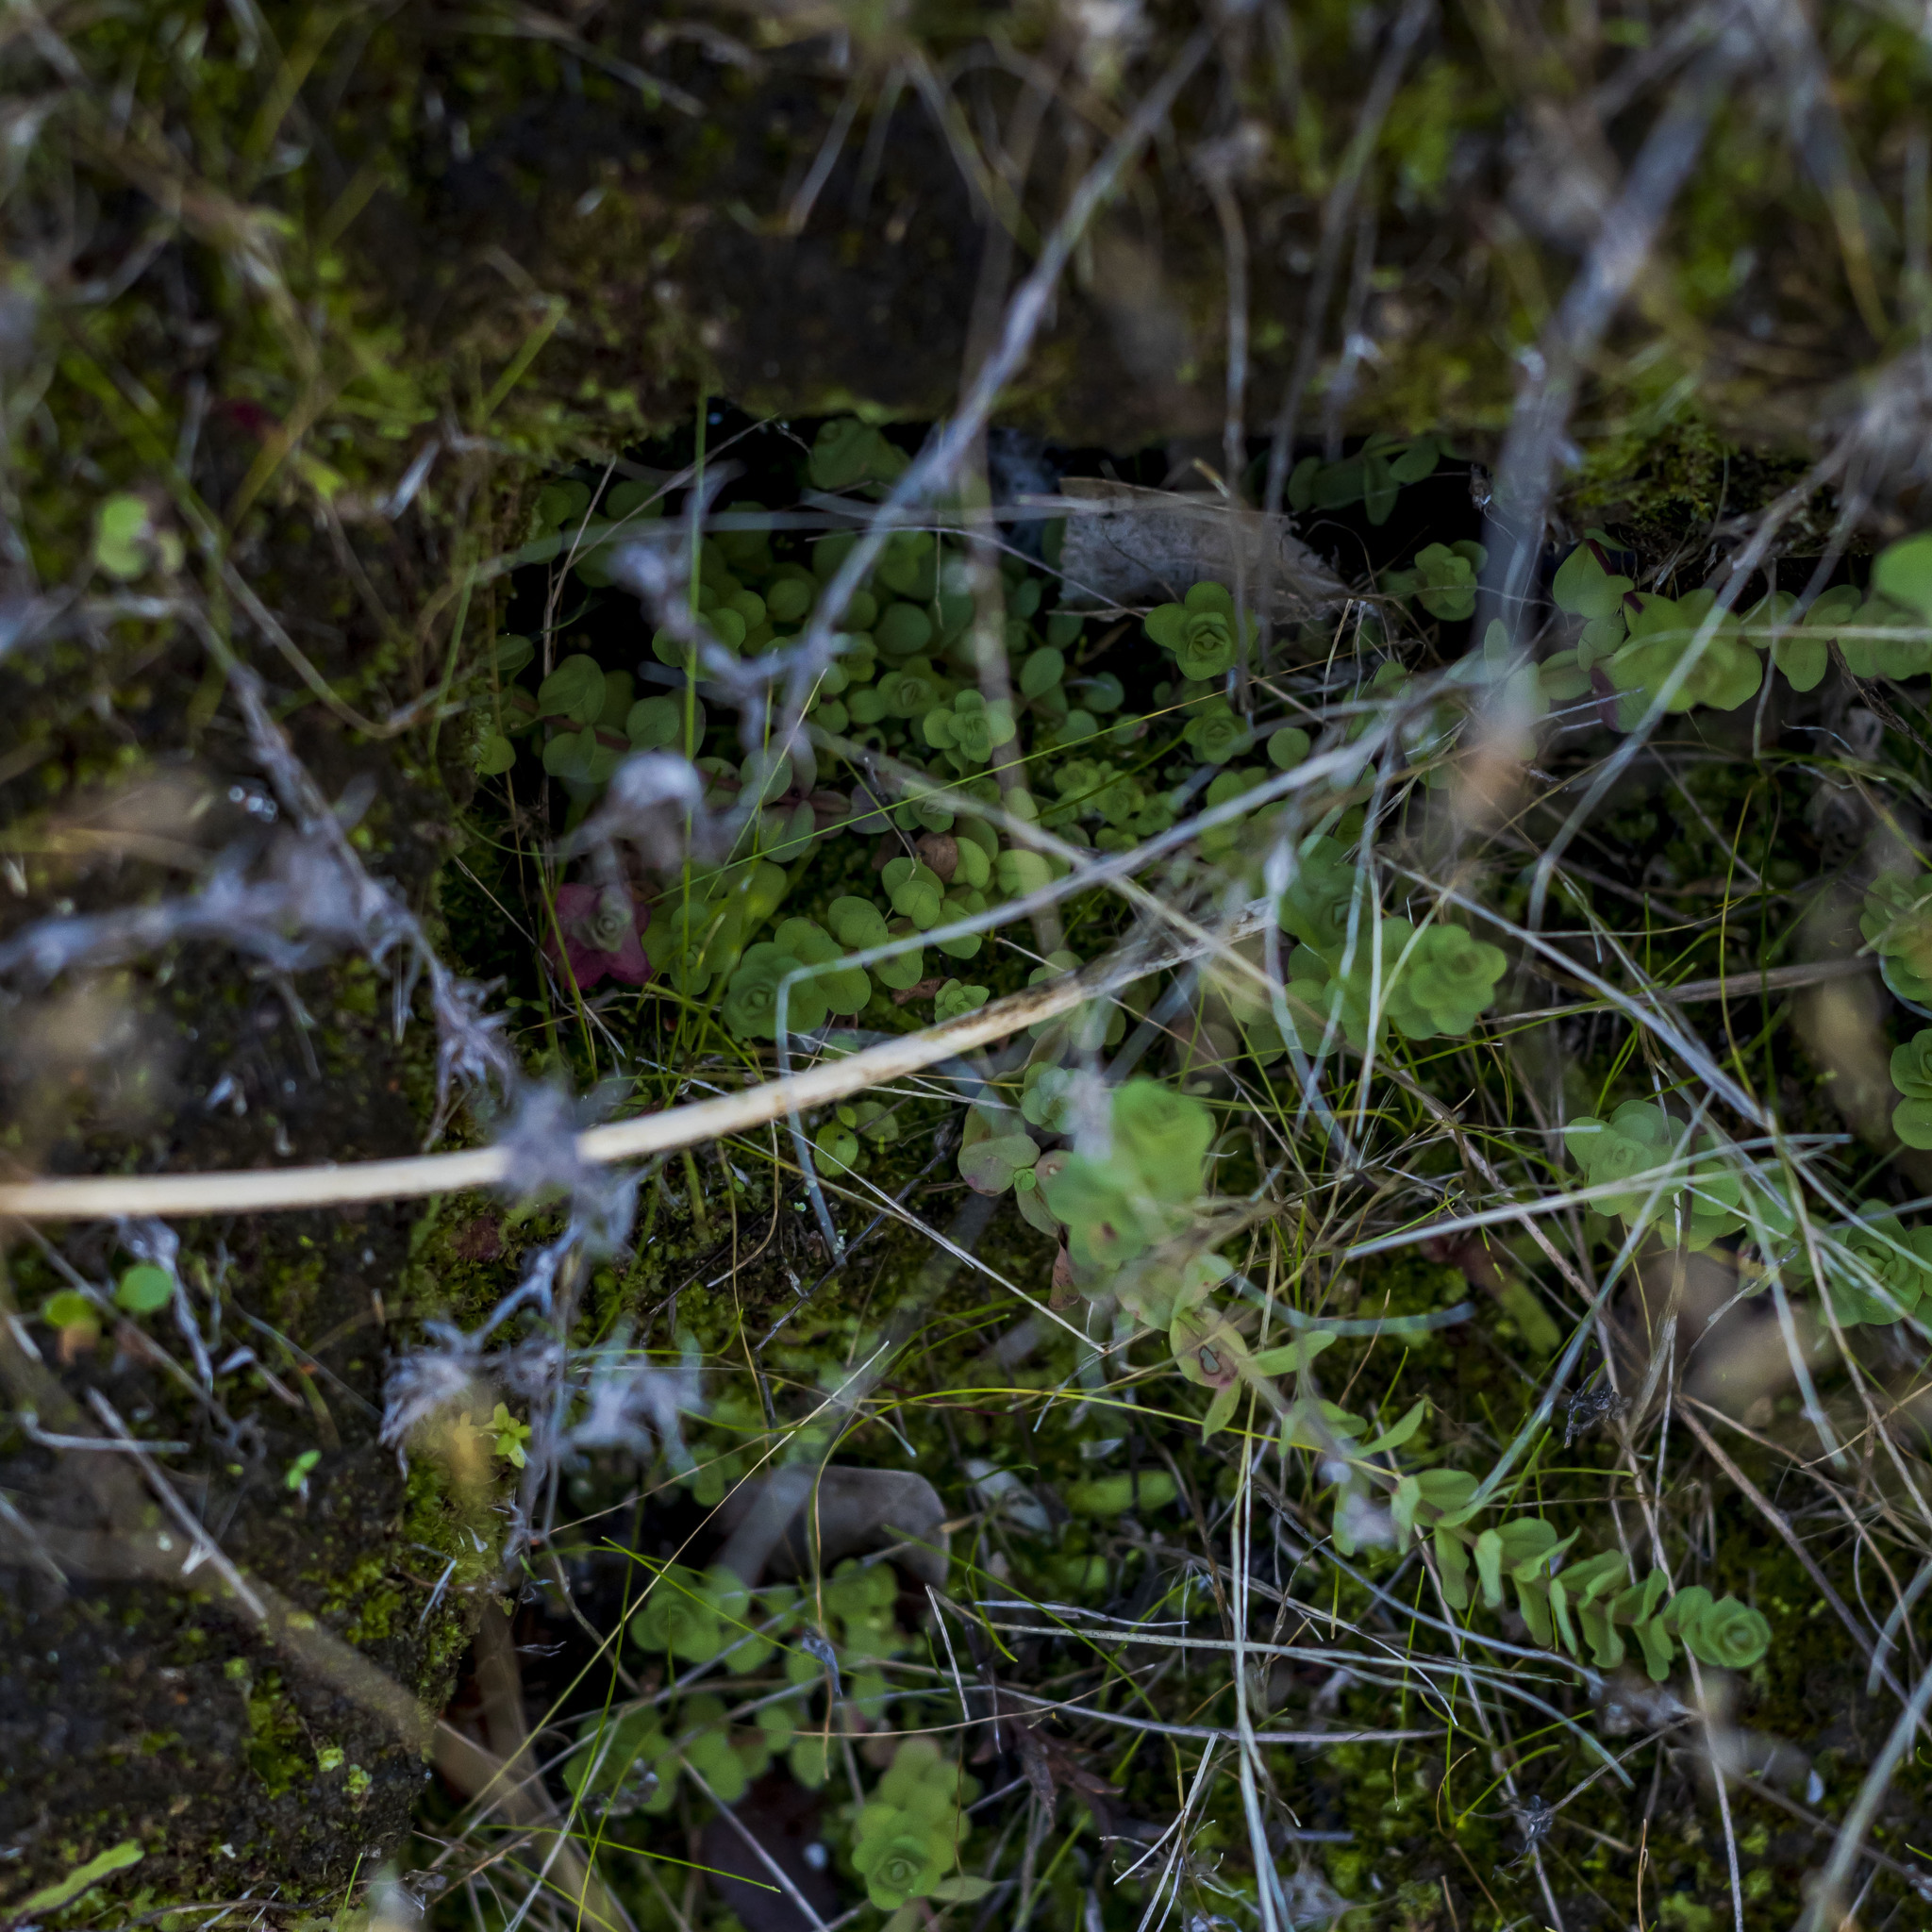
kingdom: Plantae
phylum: Tracheophyta
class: Magnoliopsida
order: Malpighiales
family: Hypericaceae
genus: Hypericum
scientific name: Hypericum anagalloides
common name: Bog st. john's-wort
